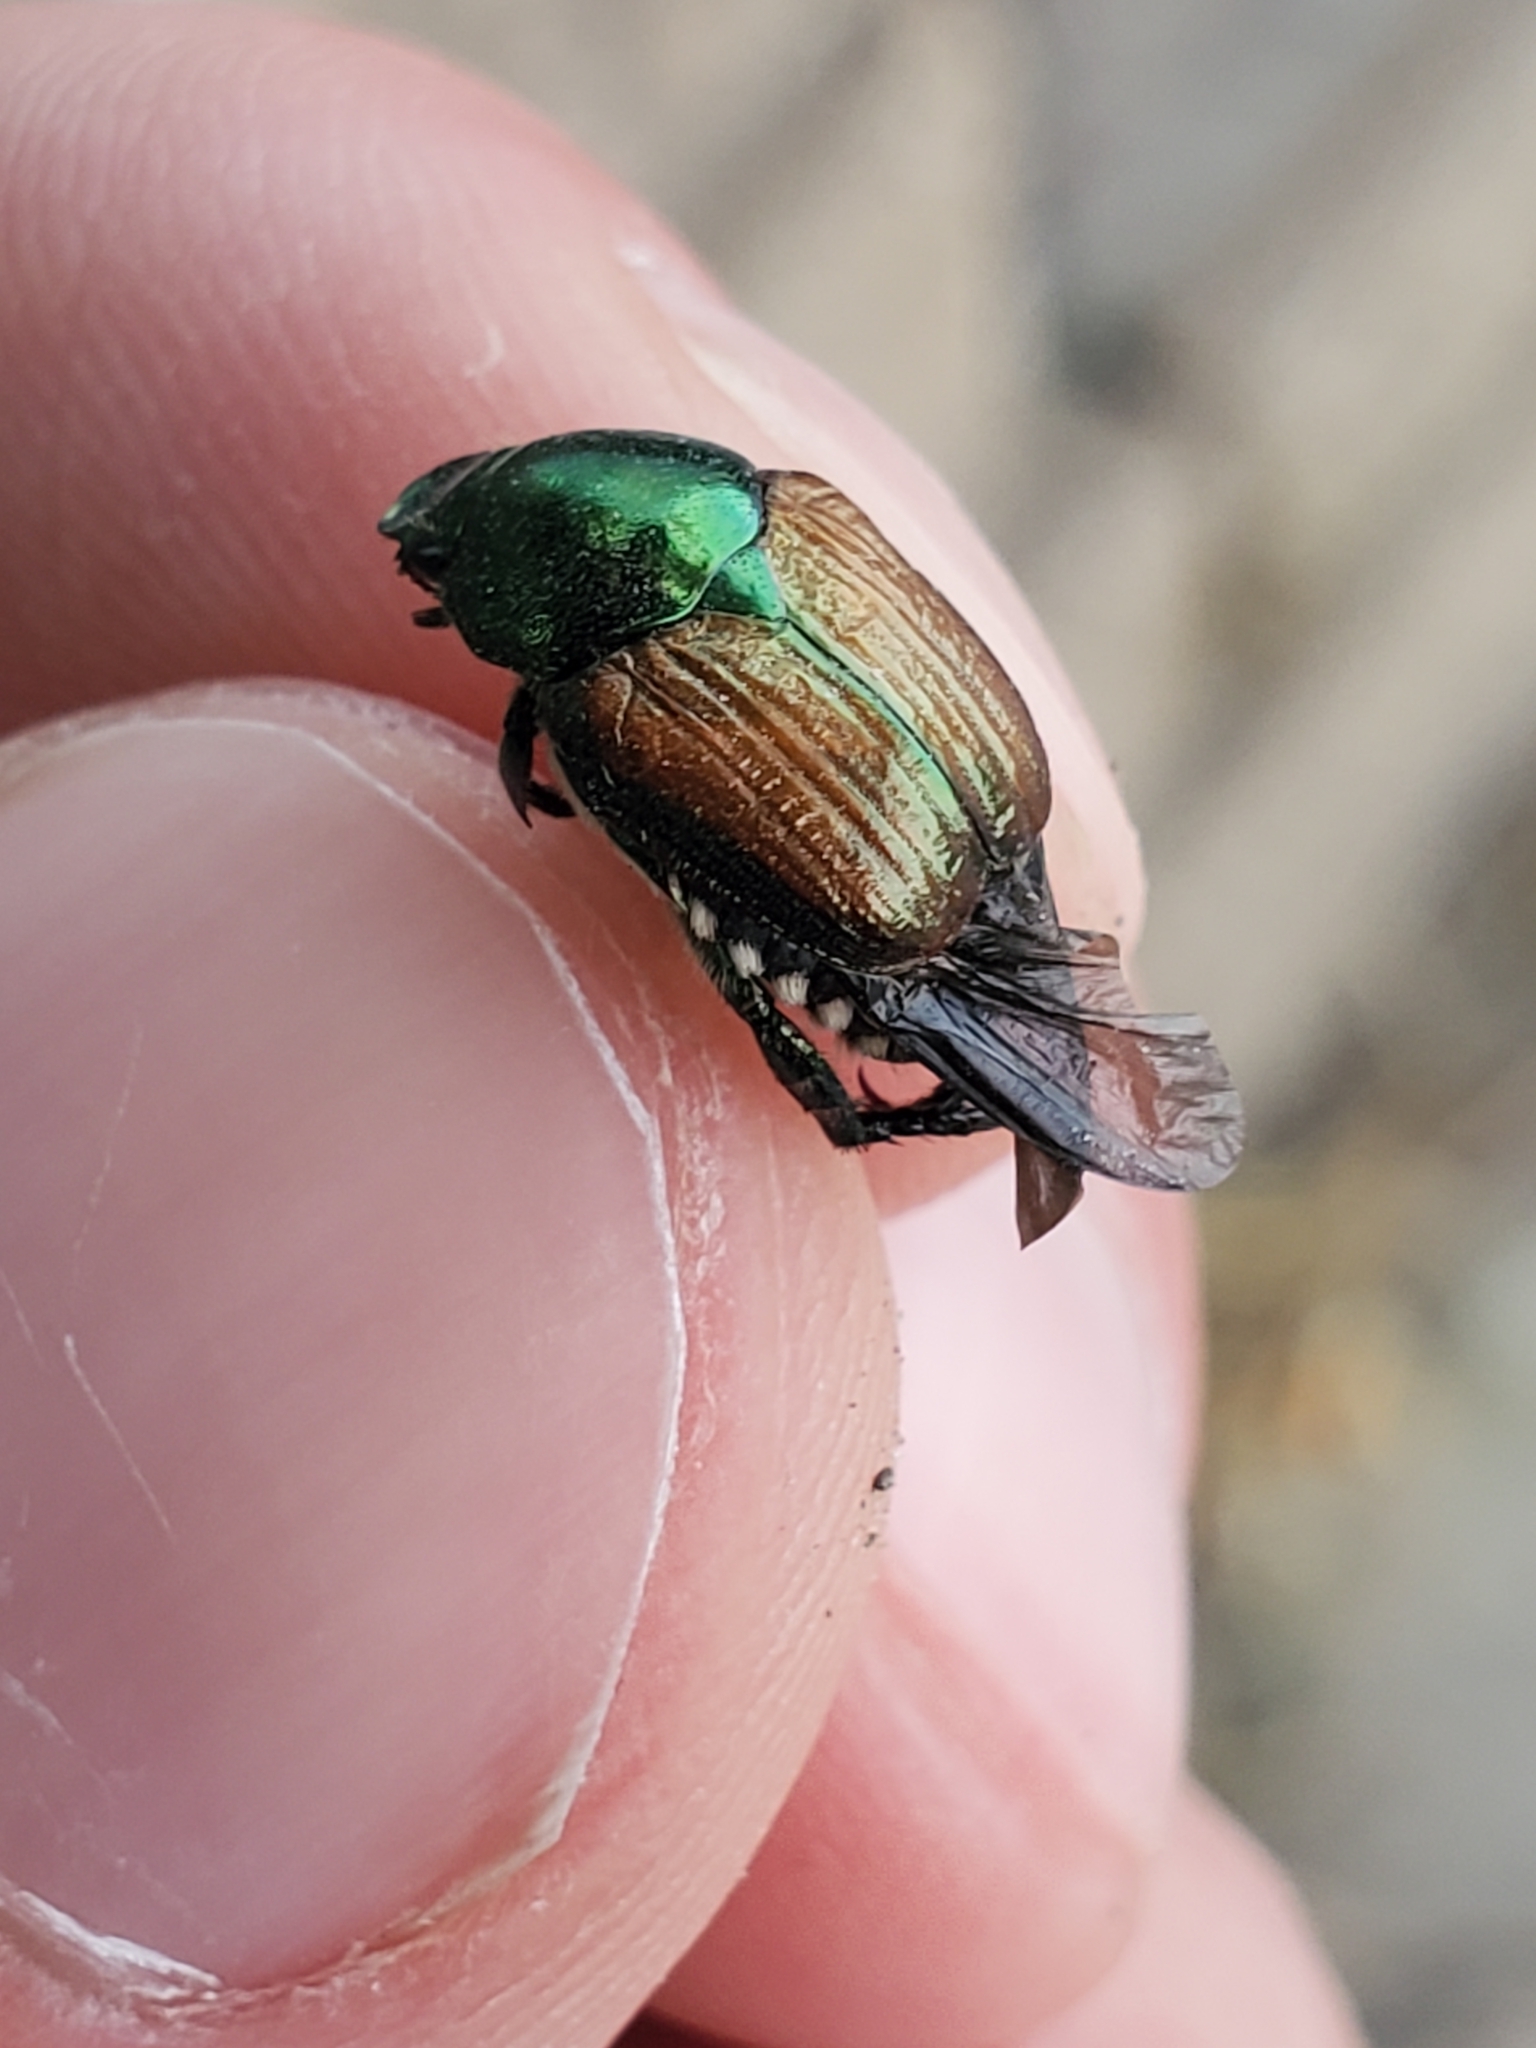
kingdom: Animalia
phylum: Arthropoda
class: Insecta
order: Coleoptera
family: Scarabaeidae
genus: Popillia
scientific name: Popillia japonica
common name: Japanese beetle
